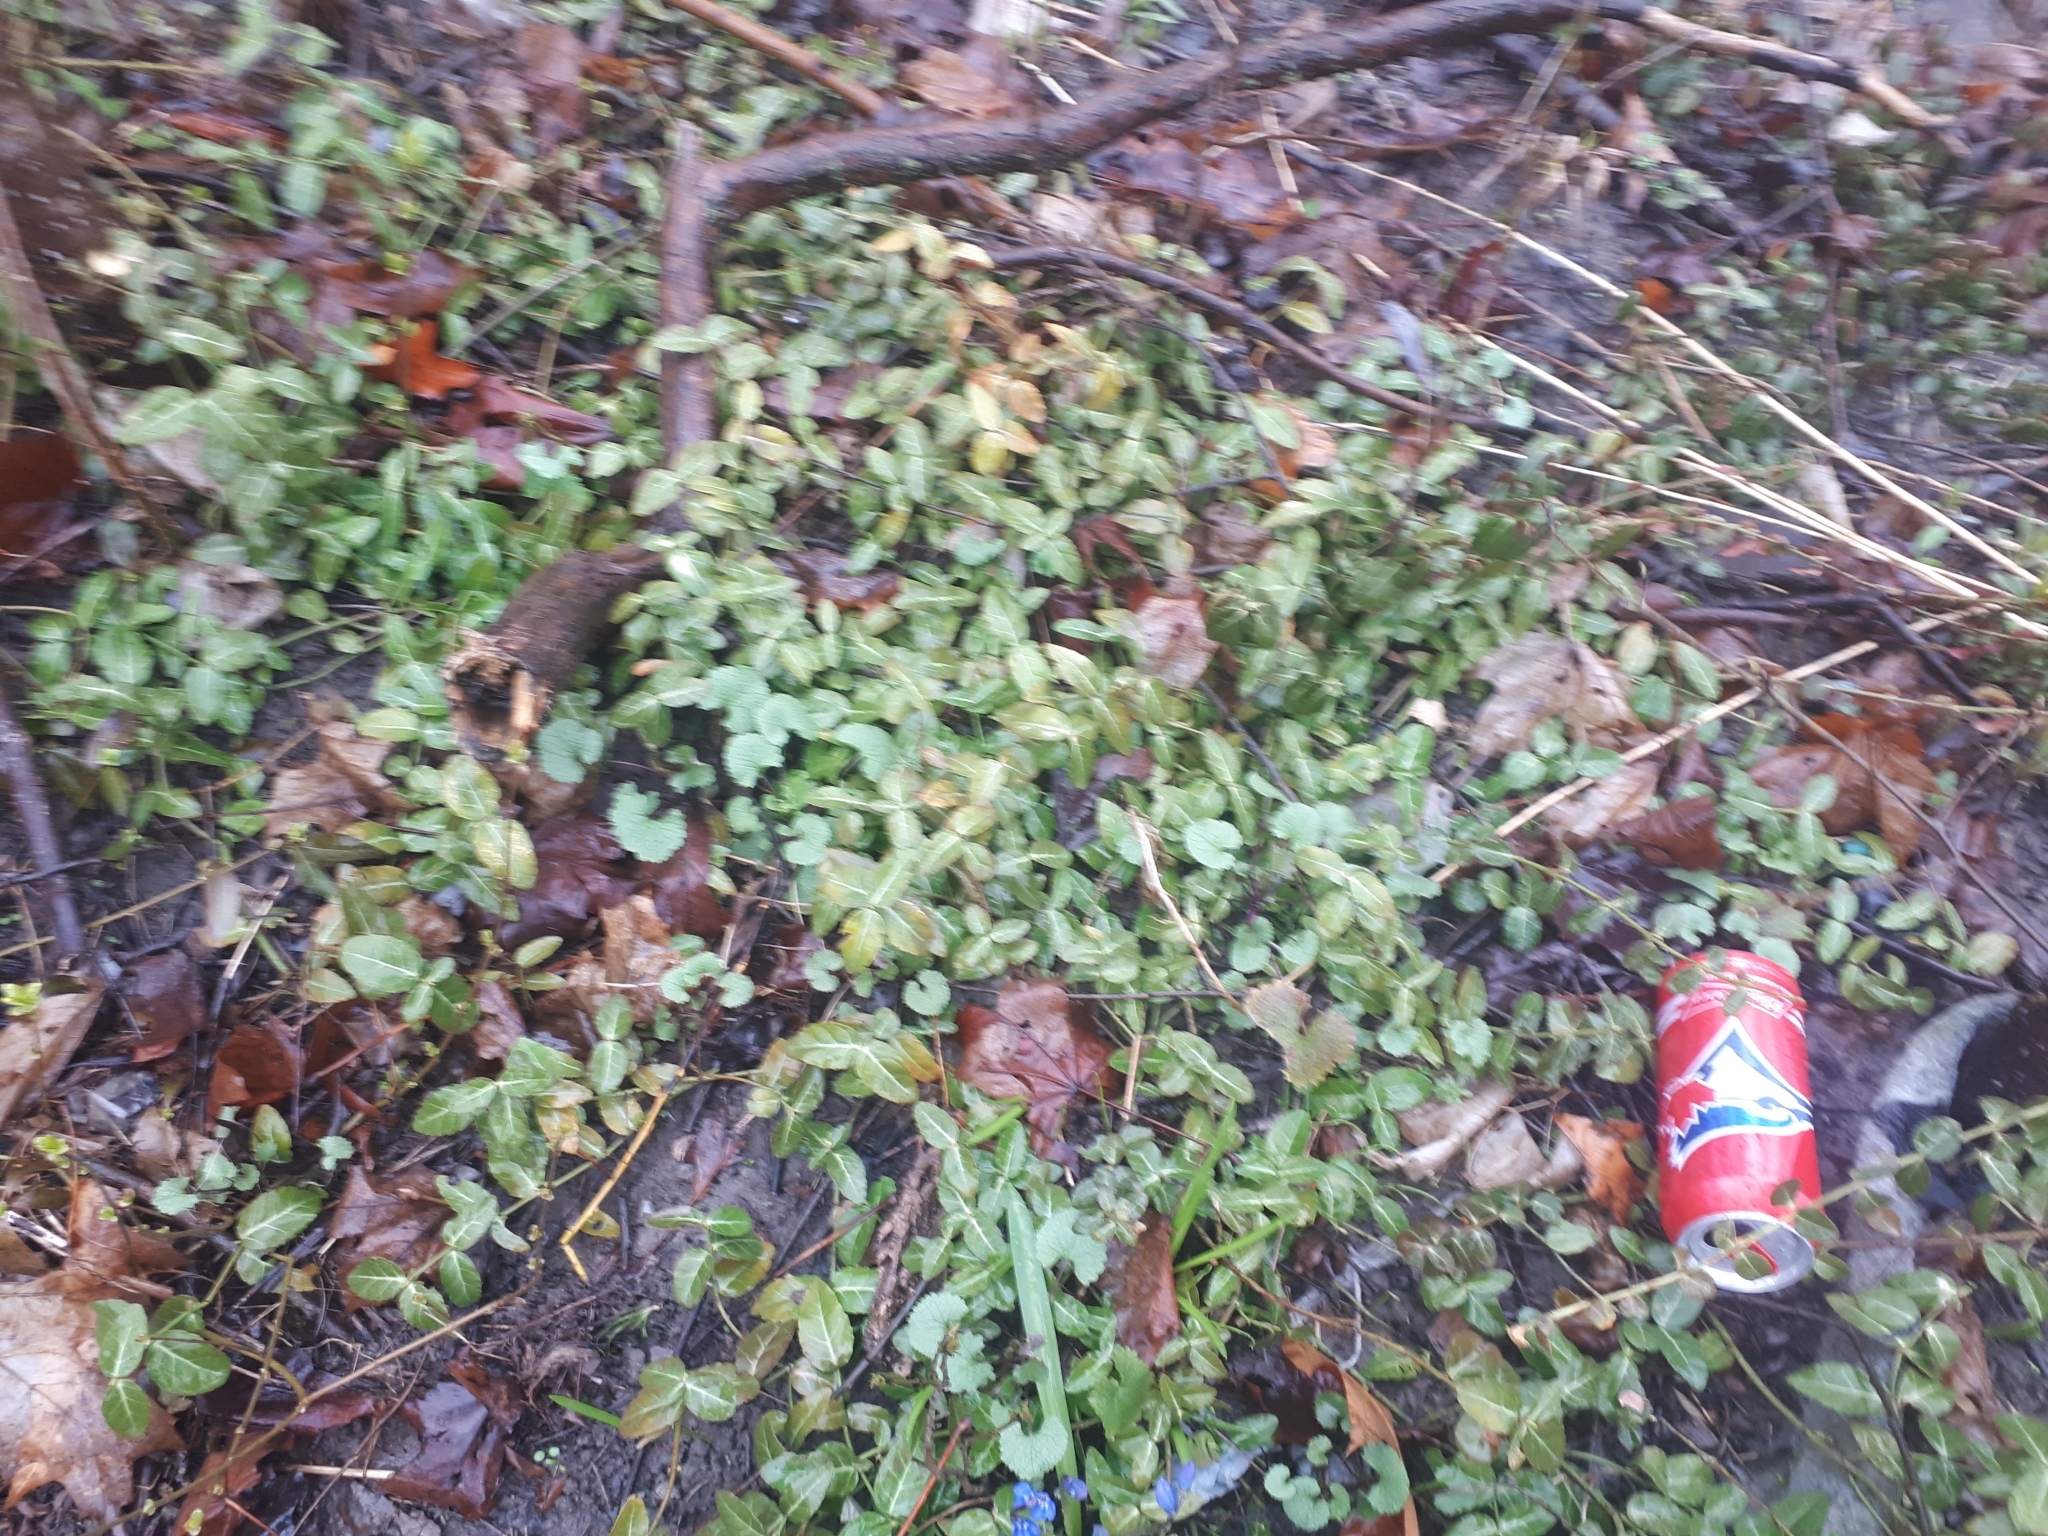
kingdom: Plantae
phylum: Tracheophyta
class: Magnoliopsida
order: Celastrales
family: Celastraceae
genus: Euonymus
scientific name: Euonymus fortunei
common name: Climbing euonymus
